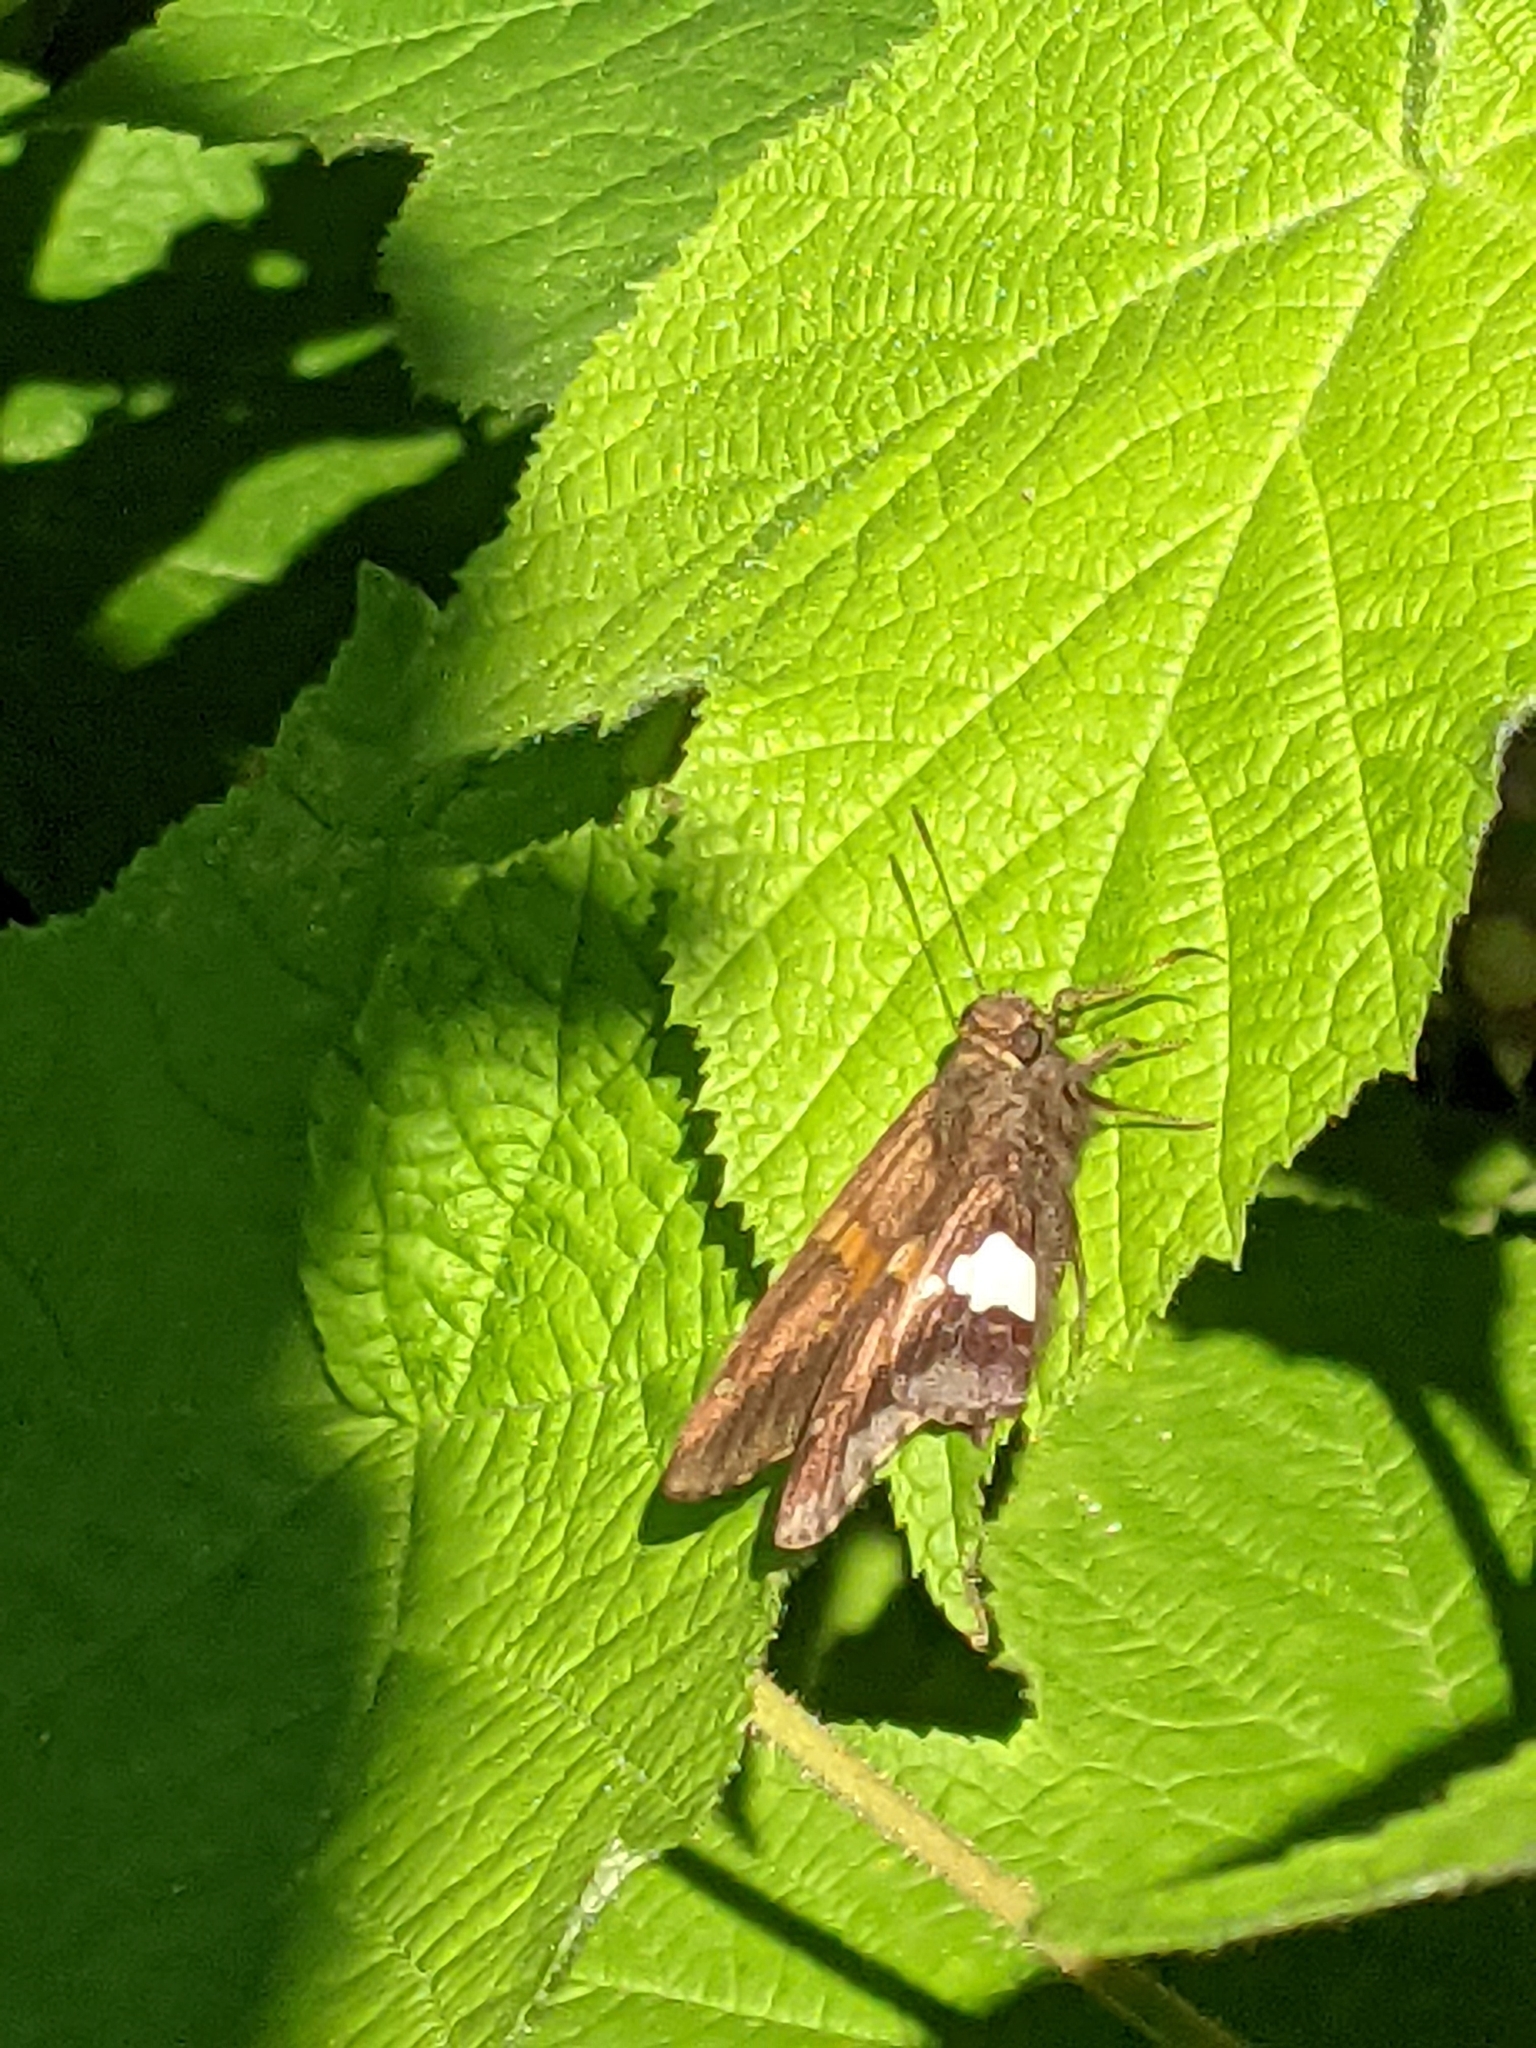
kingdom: Animalia
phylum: Arthropoda
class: Insecta
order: Lepidoptera
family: Hesperiidae
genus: Epargyreus
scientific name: Epargyreus clarus
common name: Silver-spotted skipper
